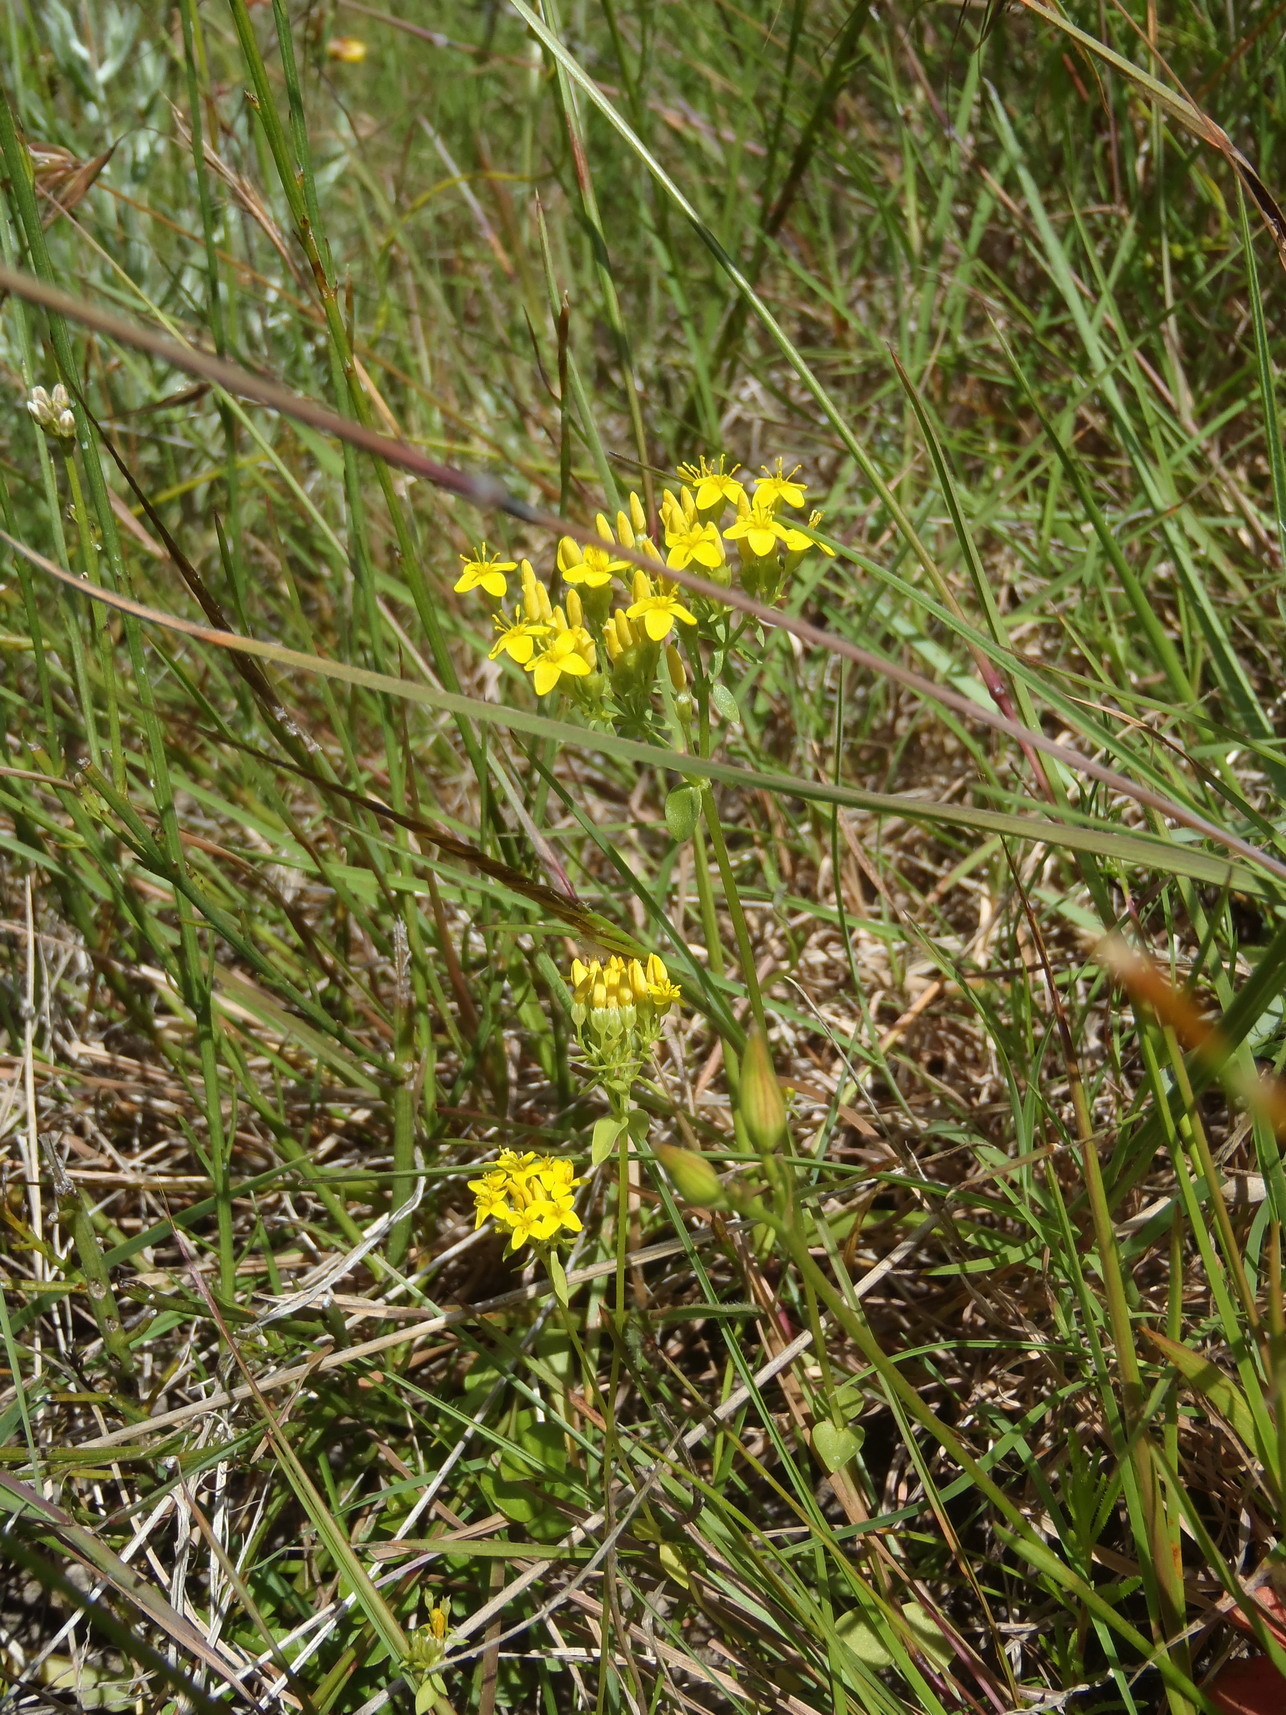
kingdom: Plantae
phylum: Tracheophyta
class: Magnoliopsida
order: Gentianales
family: Gentianaceae
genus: Sebaea
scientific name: Sebaea aurea
